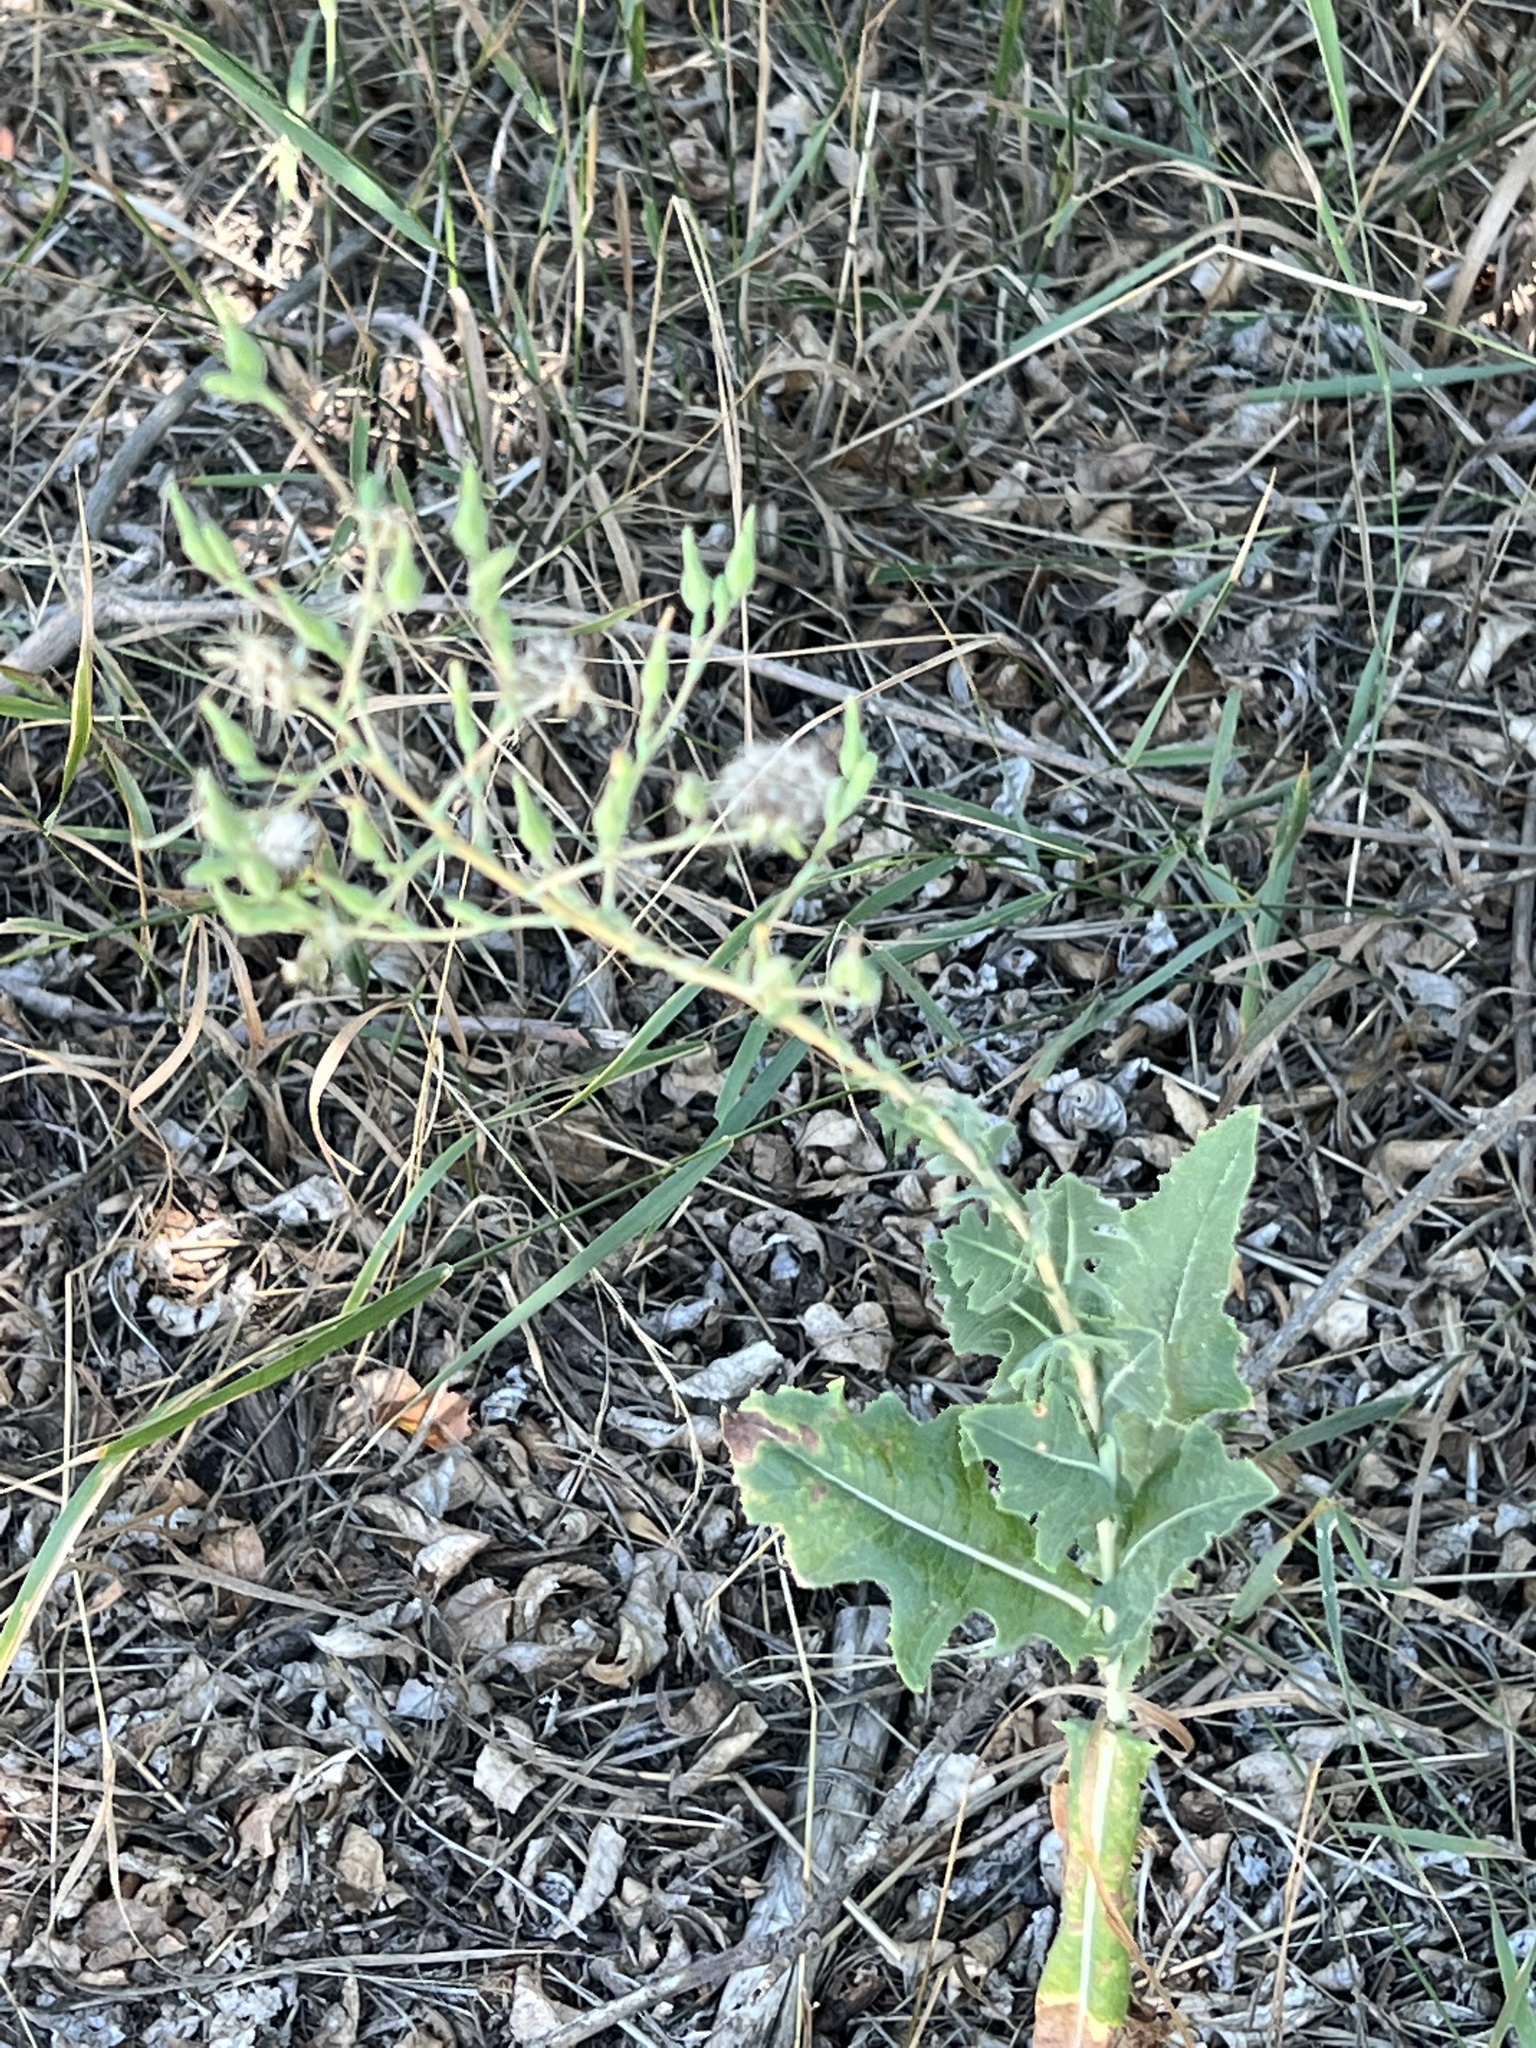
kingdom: Plantae
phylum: Tracheophyta
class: Magnoliopsida
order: Asterales
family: Asteraceae
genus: Lactuca
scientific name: Lactuca serriola
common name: Prickly lettuce
